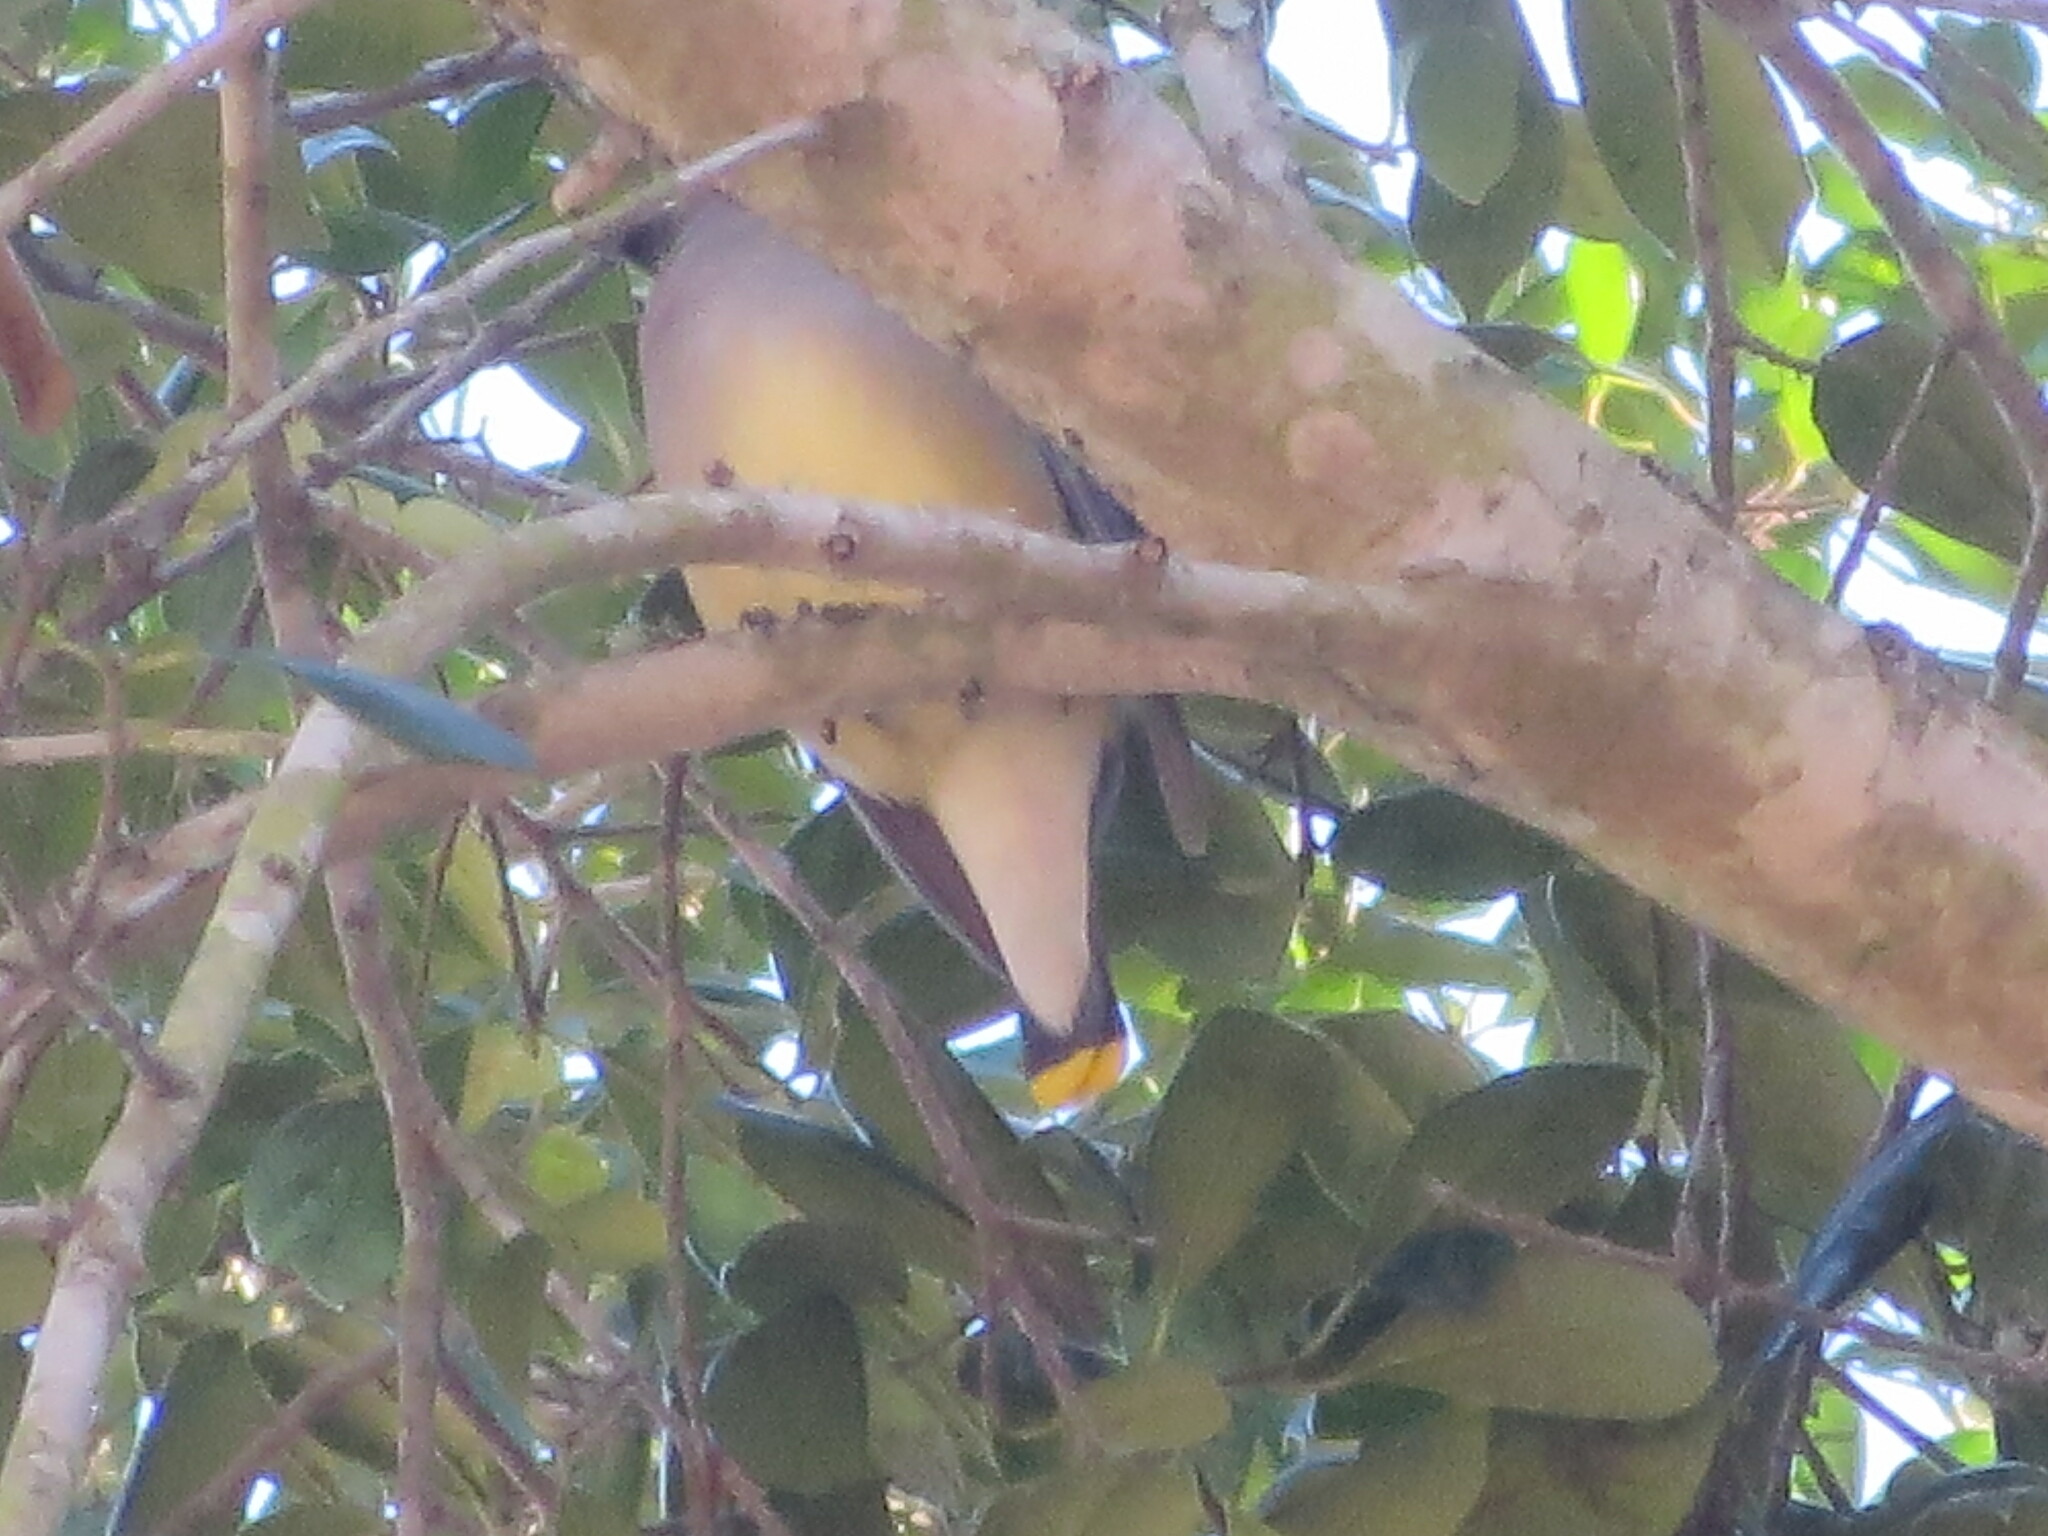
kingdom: Animalia
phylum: Chordata
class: Aves
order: Passeriformes
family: Bombycillidae
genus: Bombycilla
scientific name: Bombycilla cedrorum
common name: Cedar waxwing
